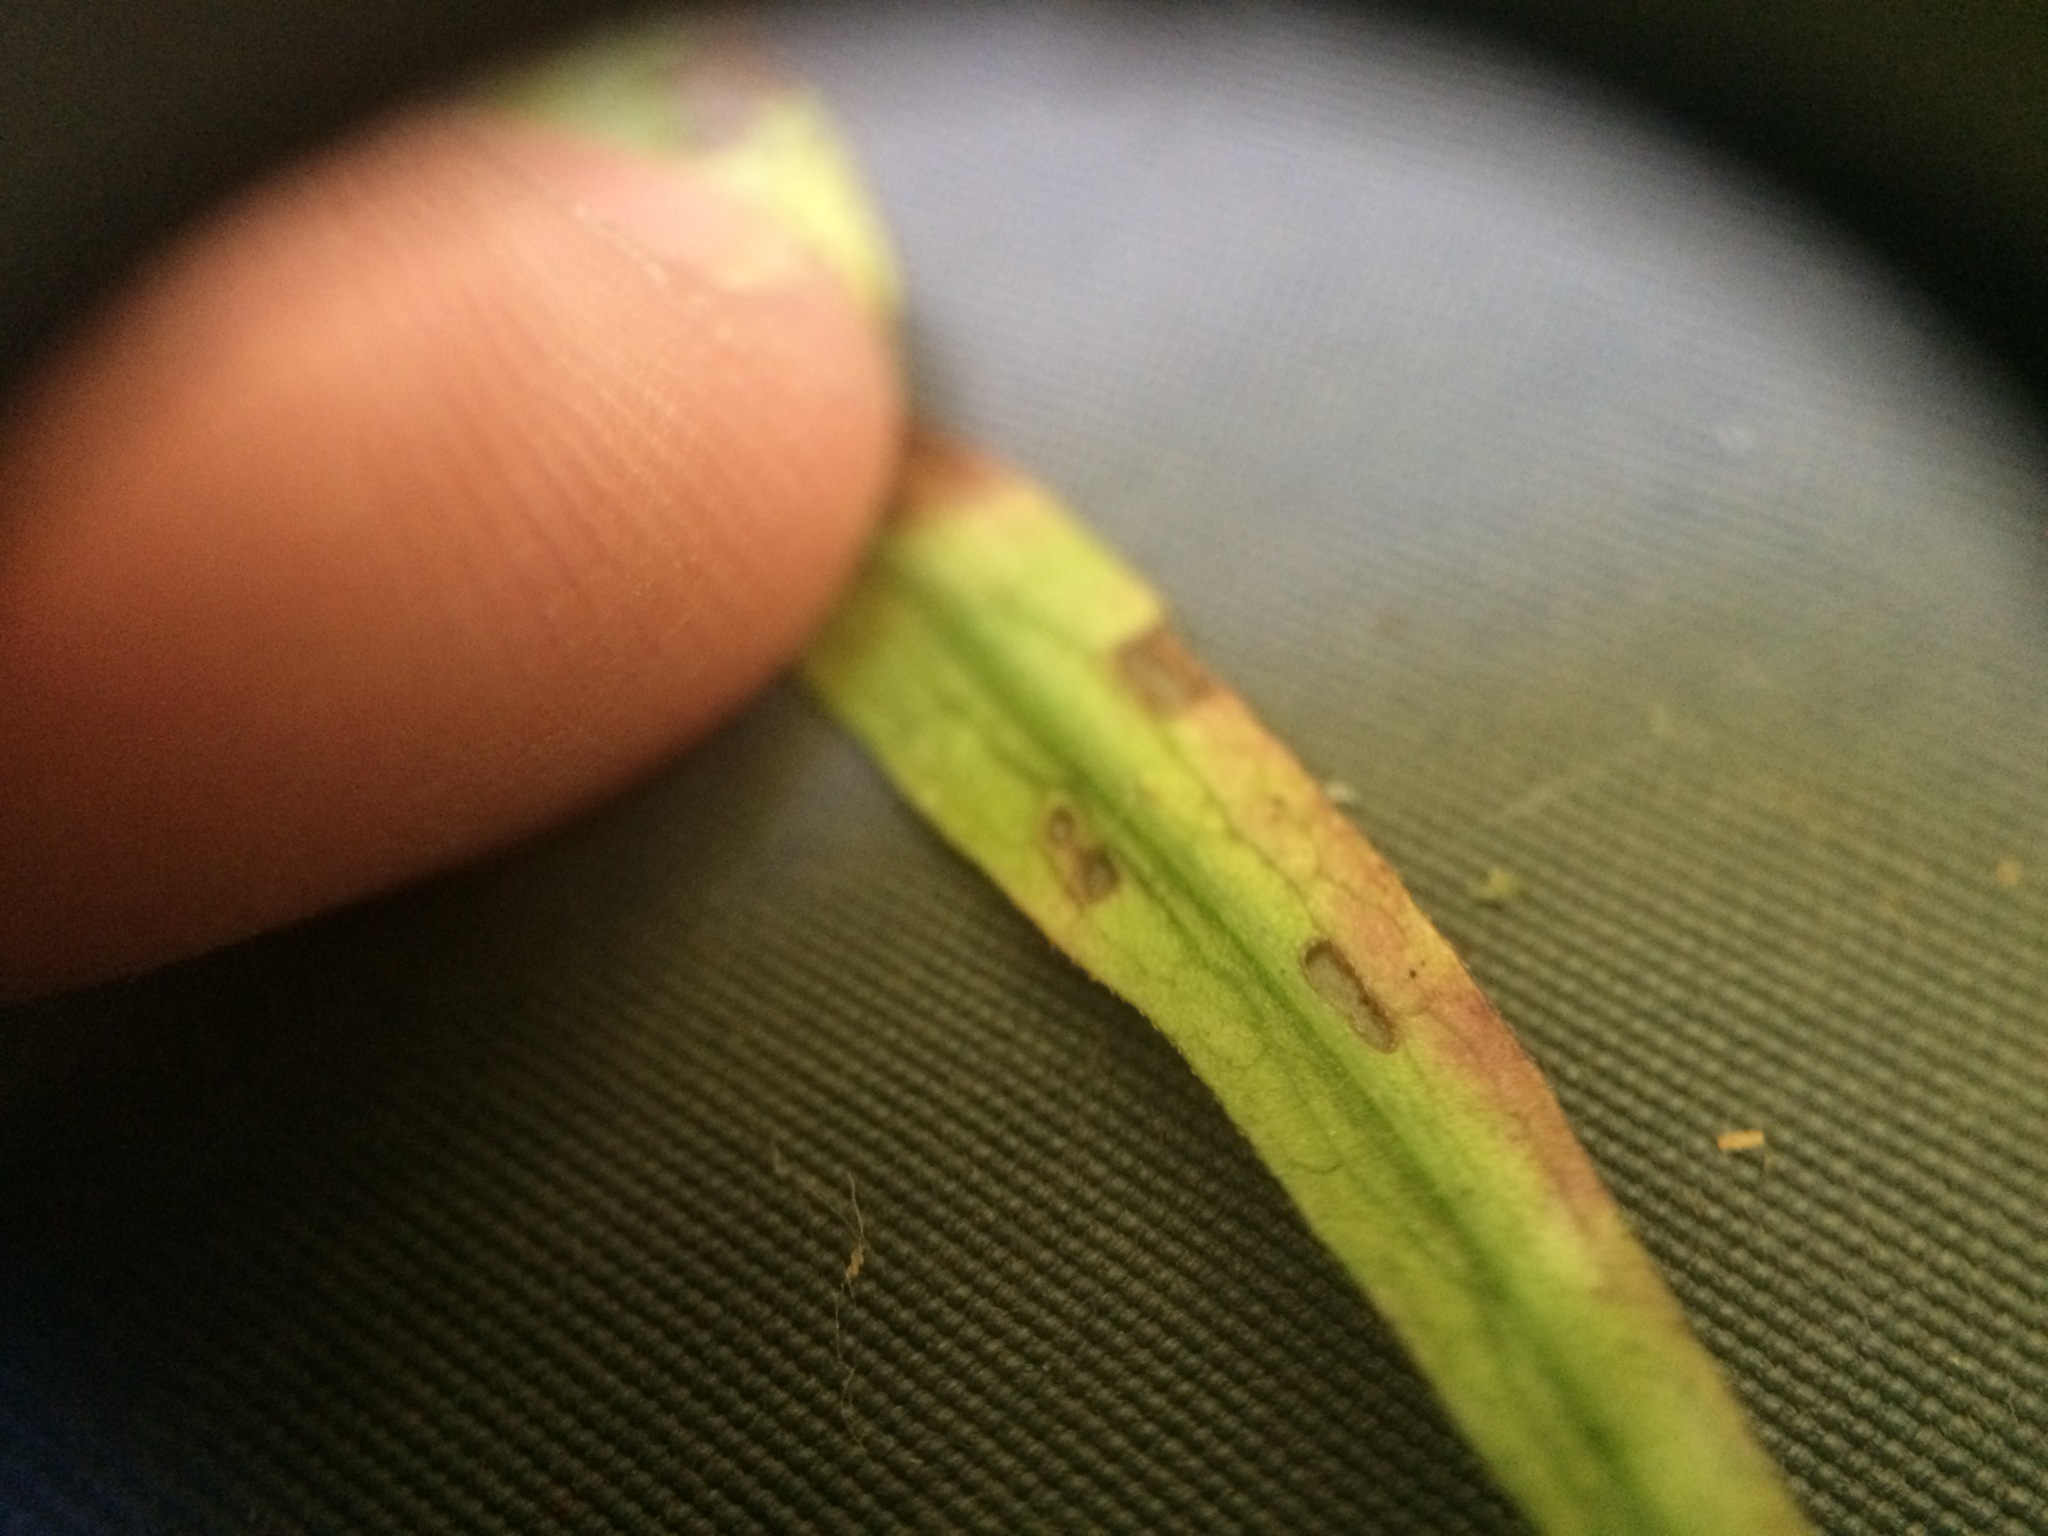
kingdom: Plantae
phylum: Tracheophyta
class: Magnoliopsida
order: Asterales
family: Asteraceae
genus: Symphyotrichum
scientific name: Symphyotrichum lateriflorum
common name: Calico aster
